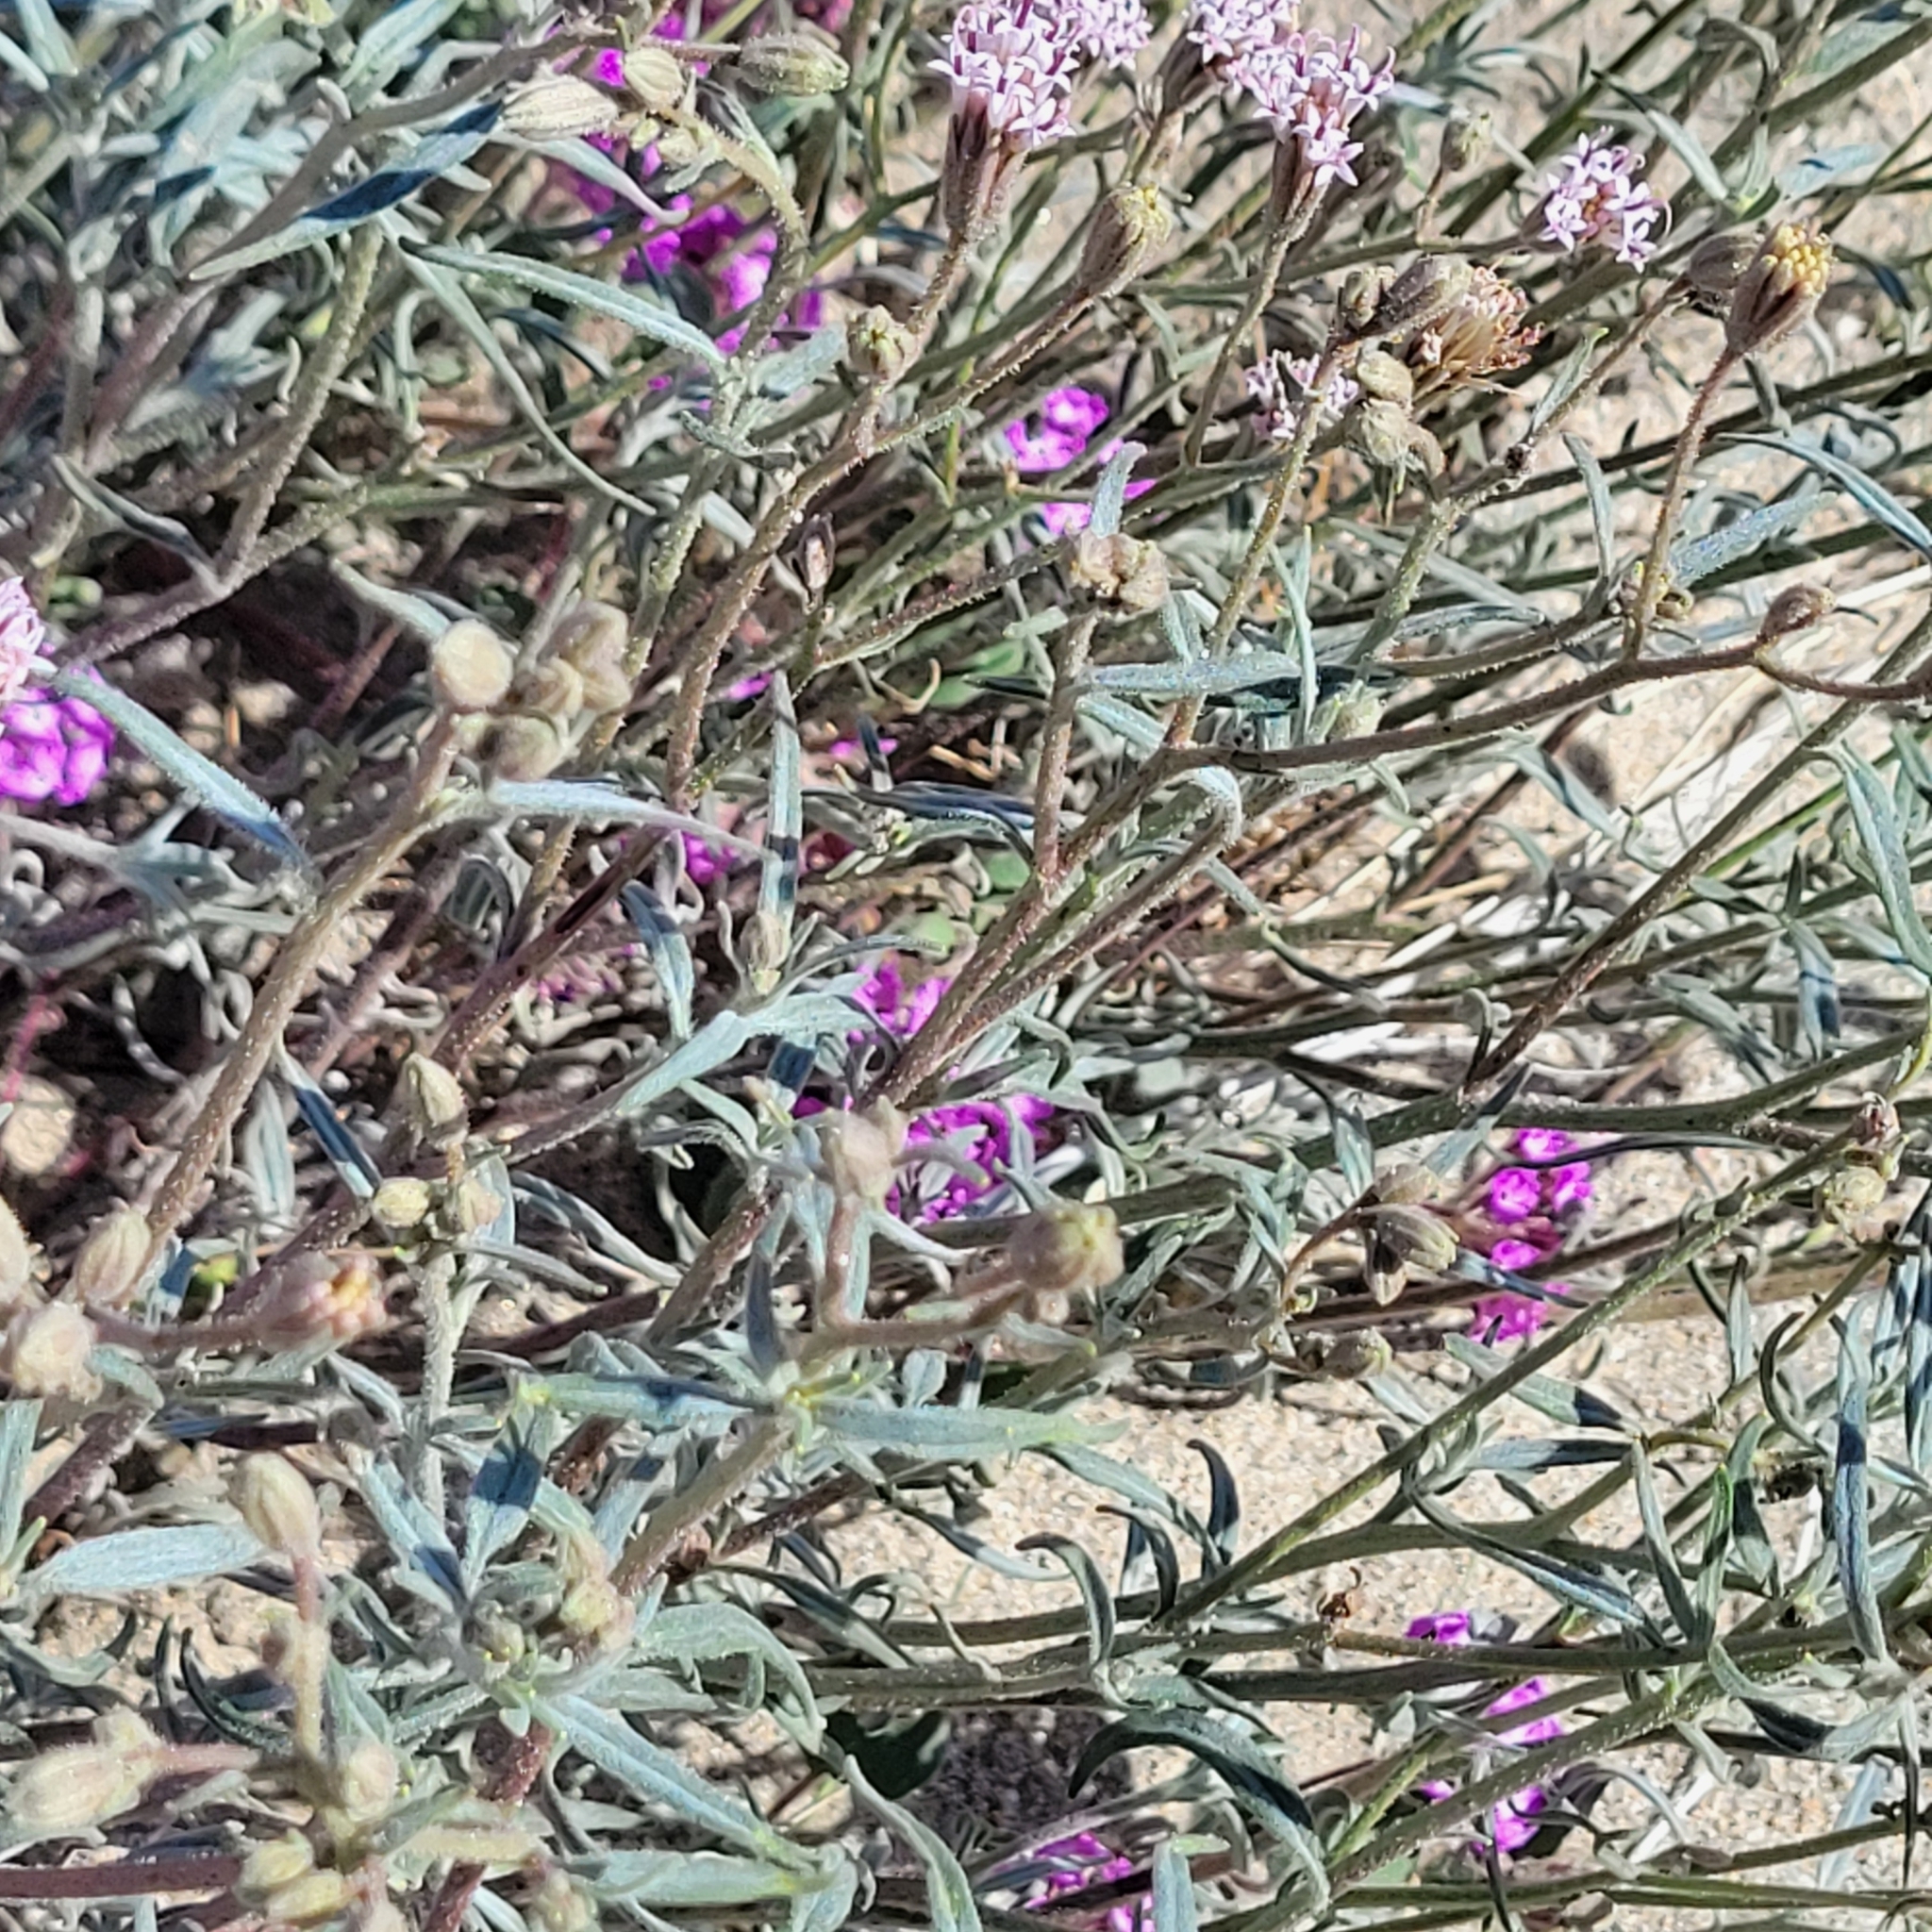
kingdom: Plantae
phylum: Tracheophyta
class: Magnoliopsida
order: Asterales
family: Asteraceae
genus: Palafoxia
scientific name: Palafoxia arida
